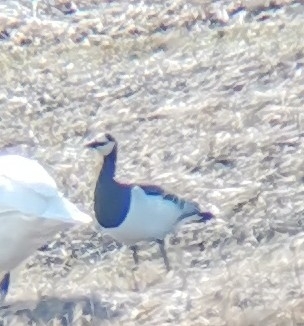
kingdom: Animalia
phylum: Chordata
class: Aves
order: Anseriformes
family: Anatidae
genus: Branta
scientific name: Branta leucopsis
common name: Barnacle goose
